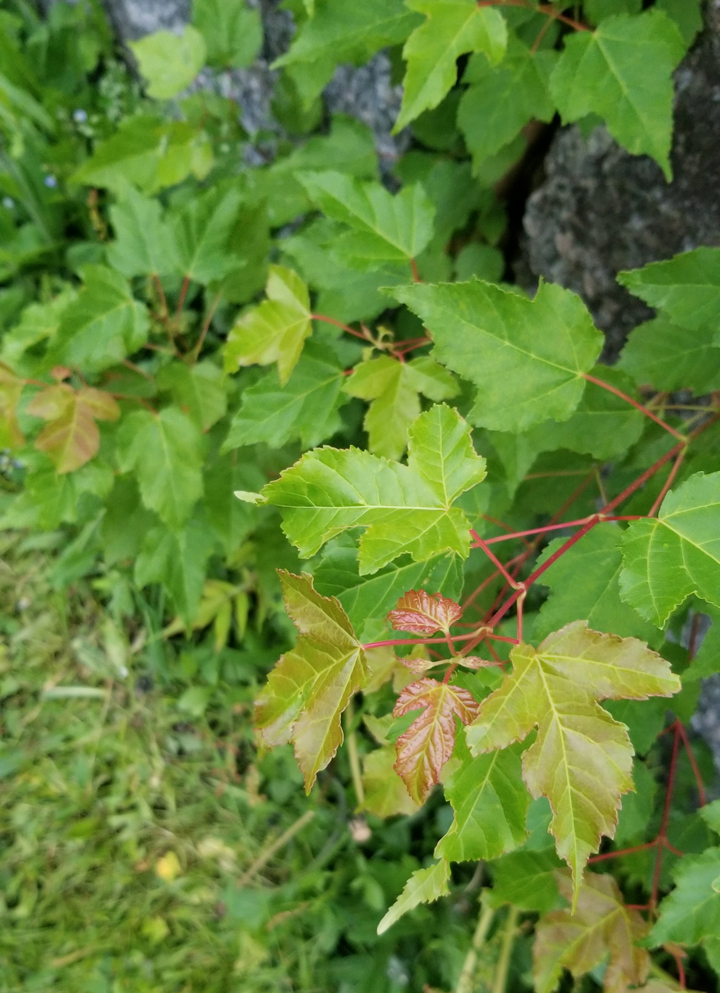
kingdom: Plantae
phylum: Tracheophyta
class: Magnoliopsida
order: Sapindales
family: Sapindaceae
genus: Acer
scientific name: Acer tataricum
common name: Tartar maple
